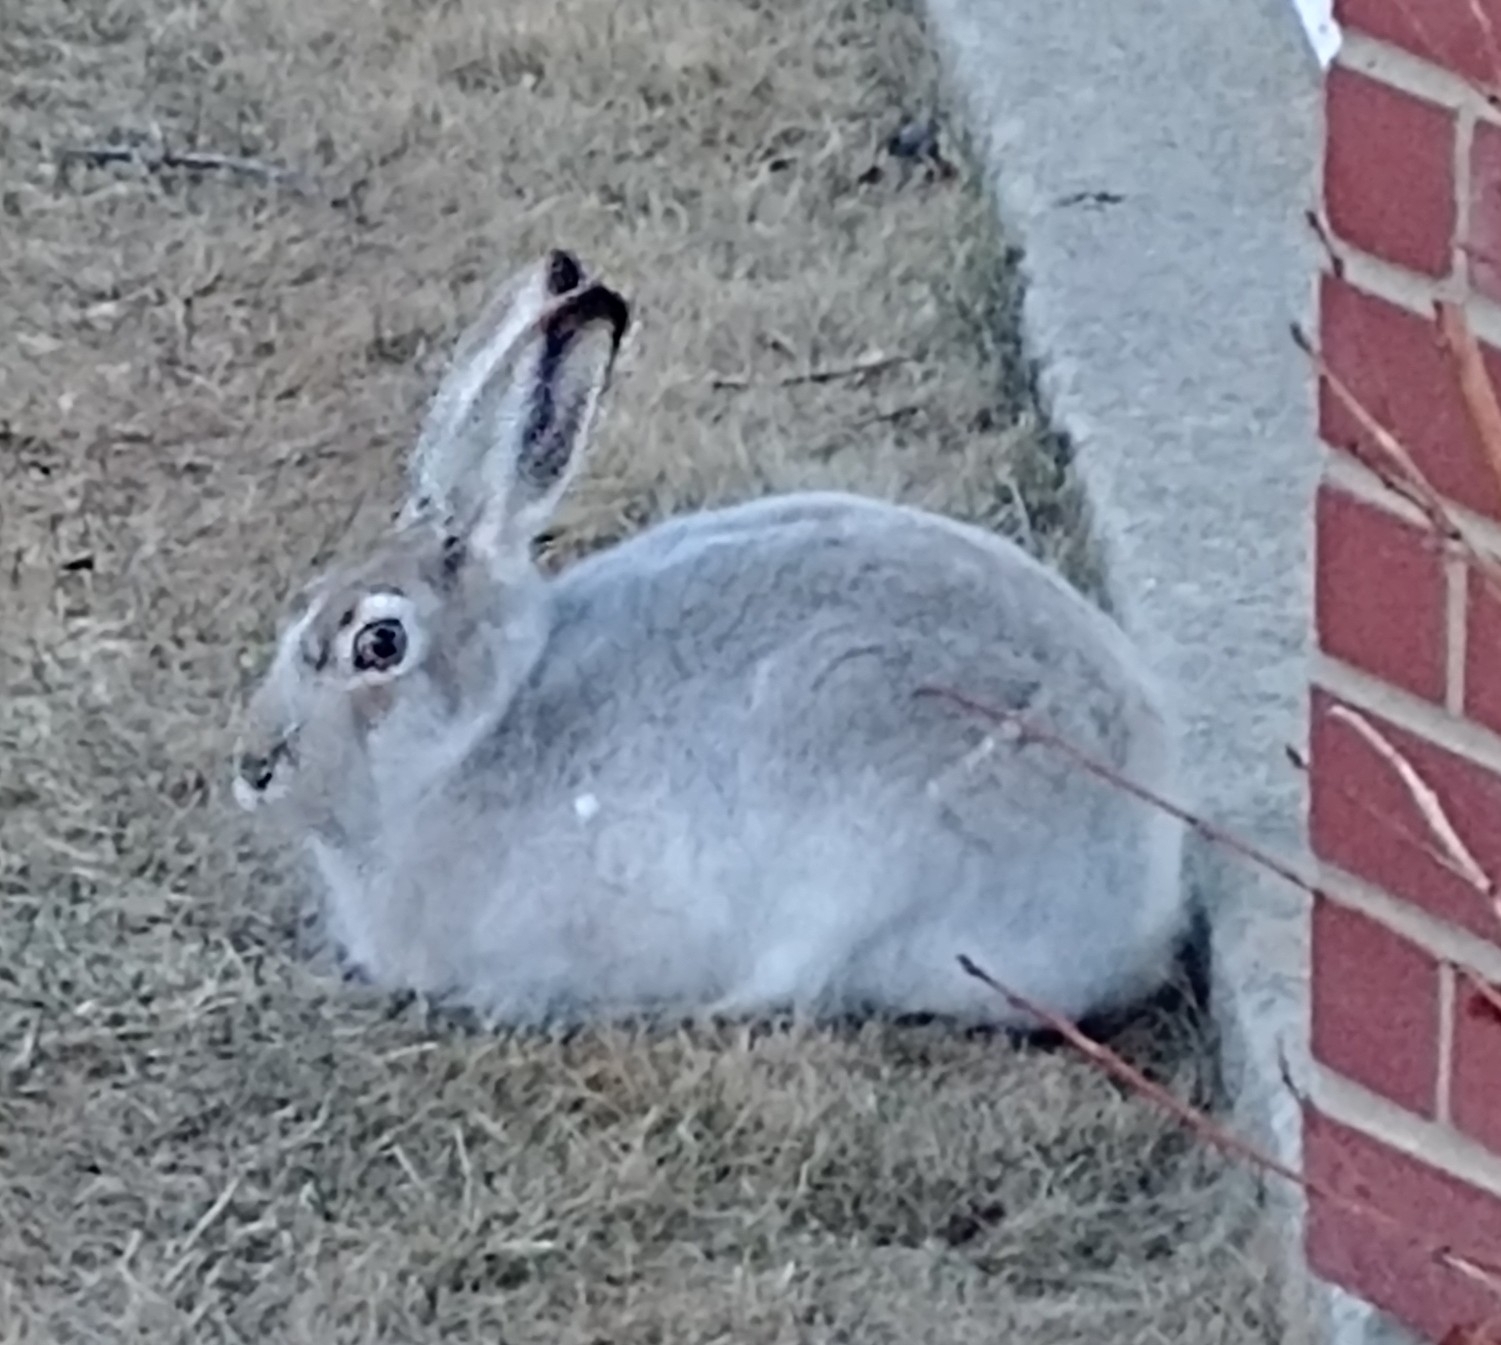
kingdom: Animalia
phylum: Chordata
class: Mammalia
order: Lagomorpha
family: Leporidae
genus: Lepus
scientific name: Lepus townsendii
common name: White-tailed jackrabbit
